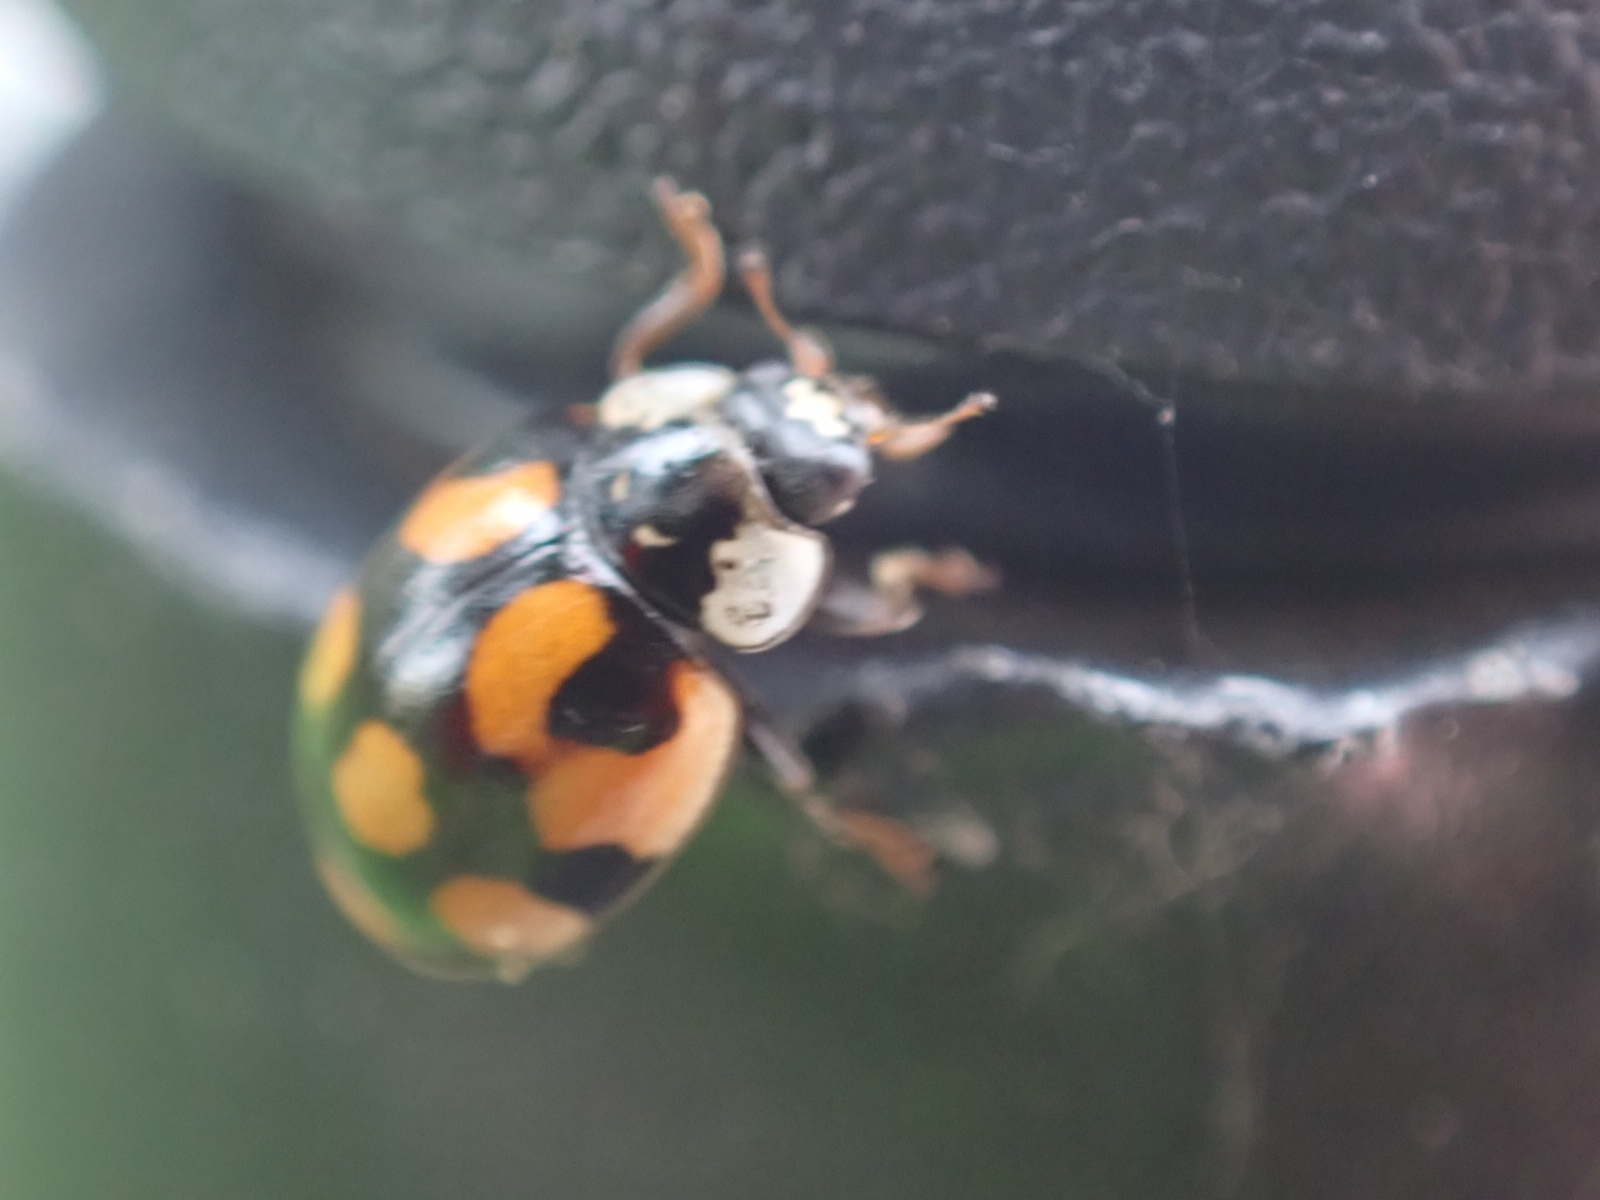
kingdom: Animalia
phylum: Arthropoda
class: Insecta
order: Coleoptera
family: Coccinellidae
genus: Adalia
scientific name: Adalia decempunctata
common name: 10-spot ladybird
